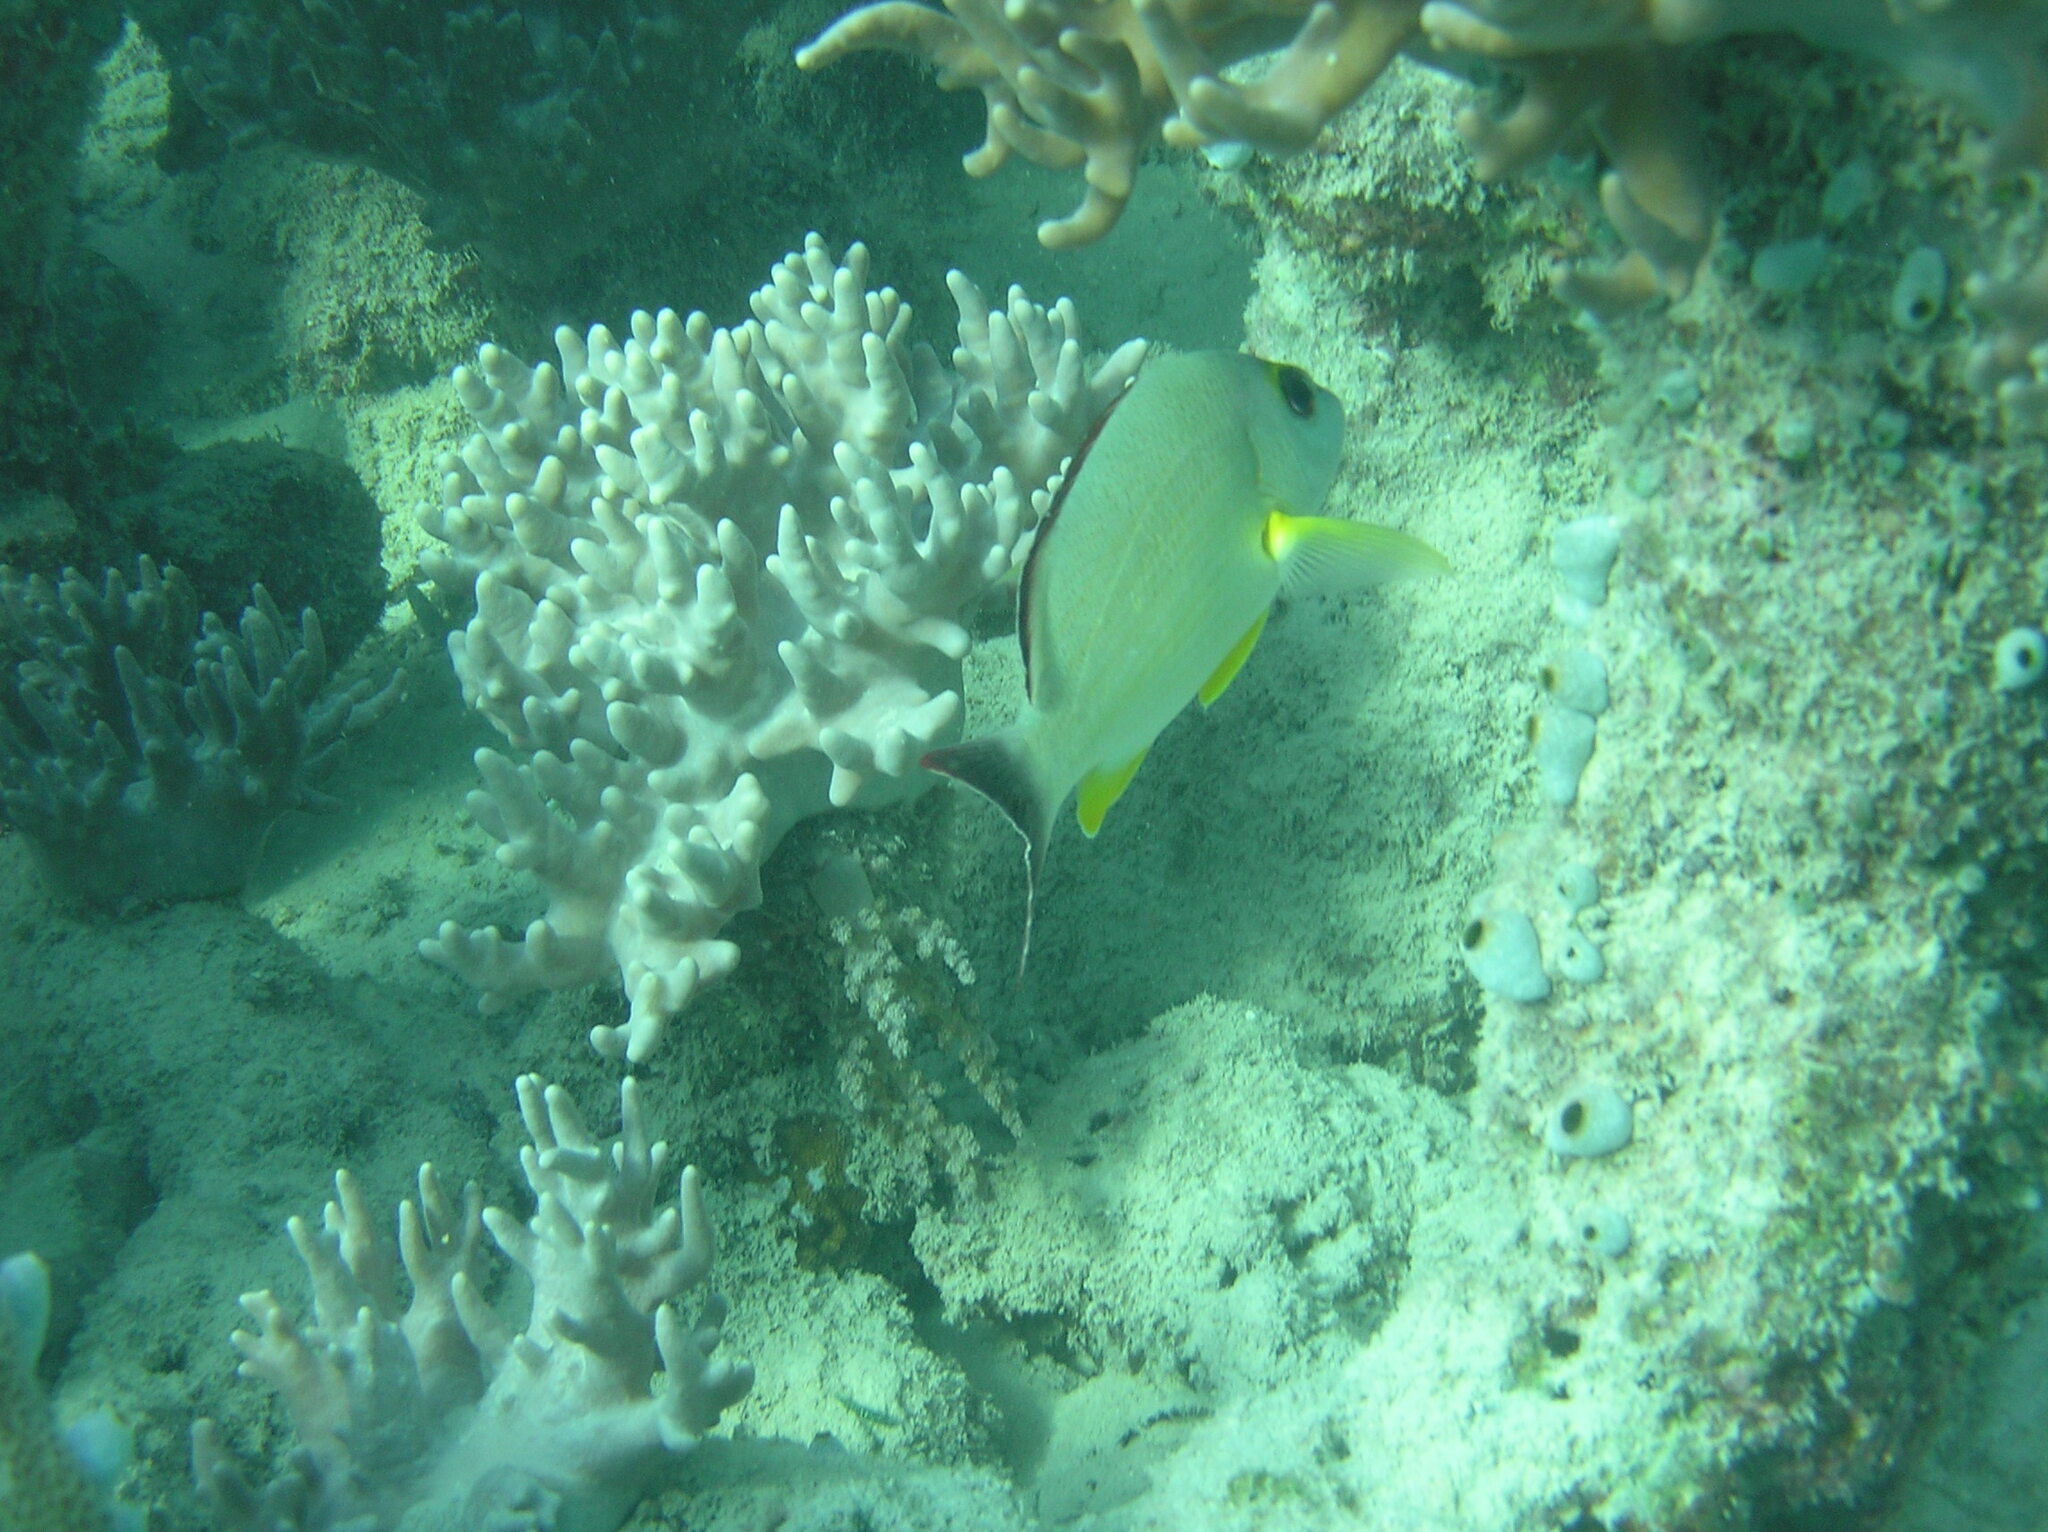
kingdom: Animalia
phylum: Chordata
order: Perciformes
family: Lutjanidae
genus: Lutjanus
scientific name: Lutjanus fulvus
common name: Blacktail snapper
